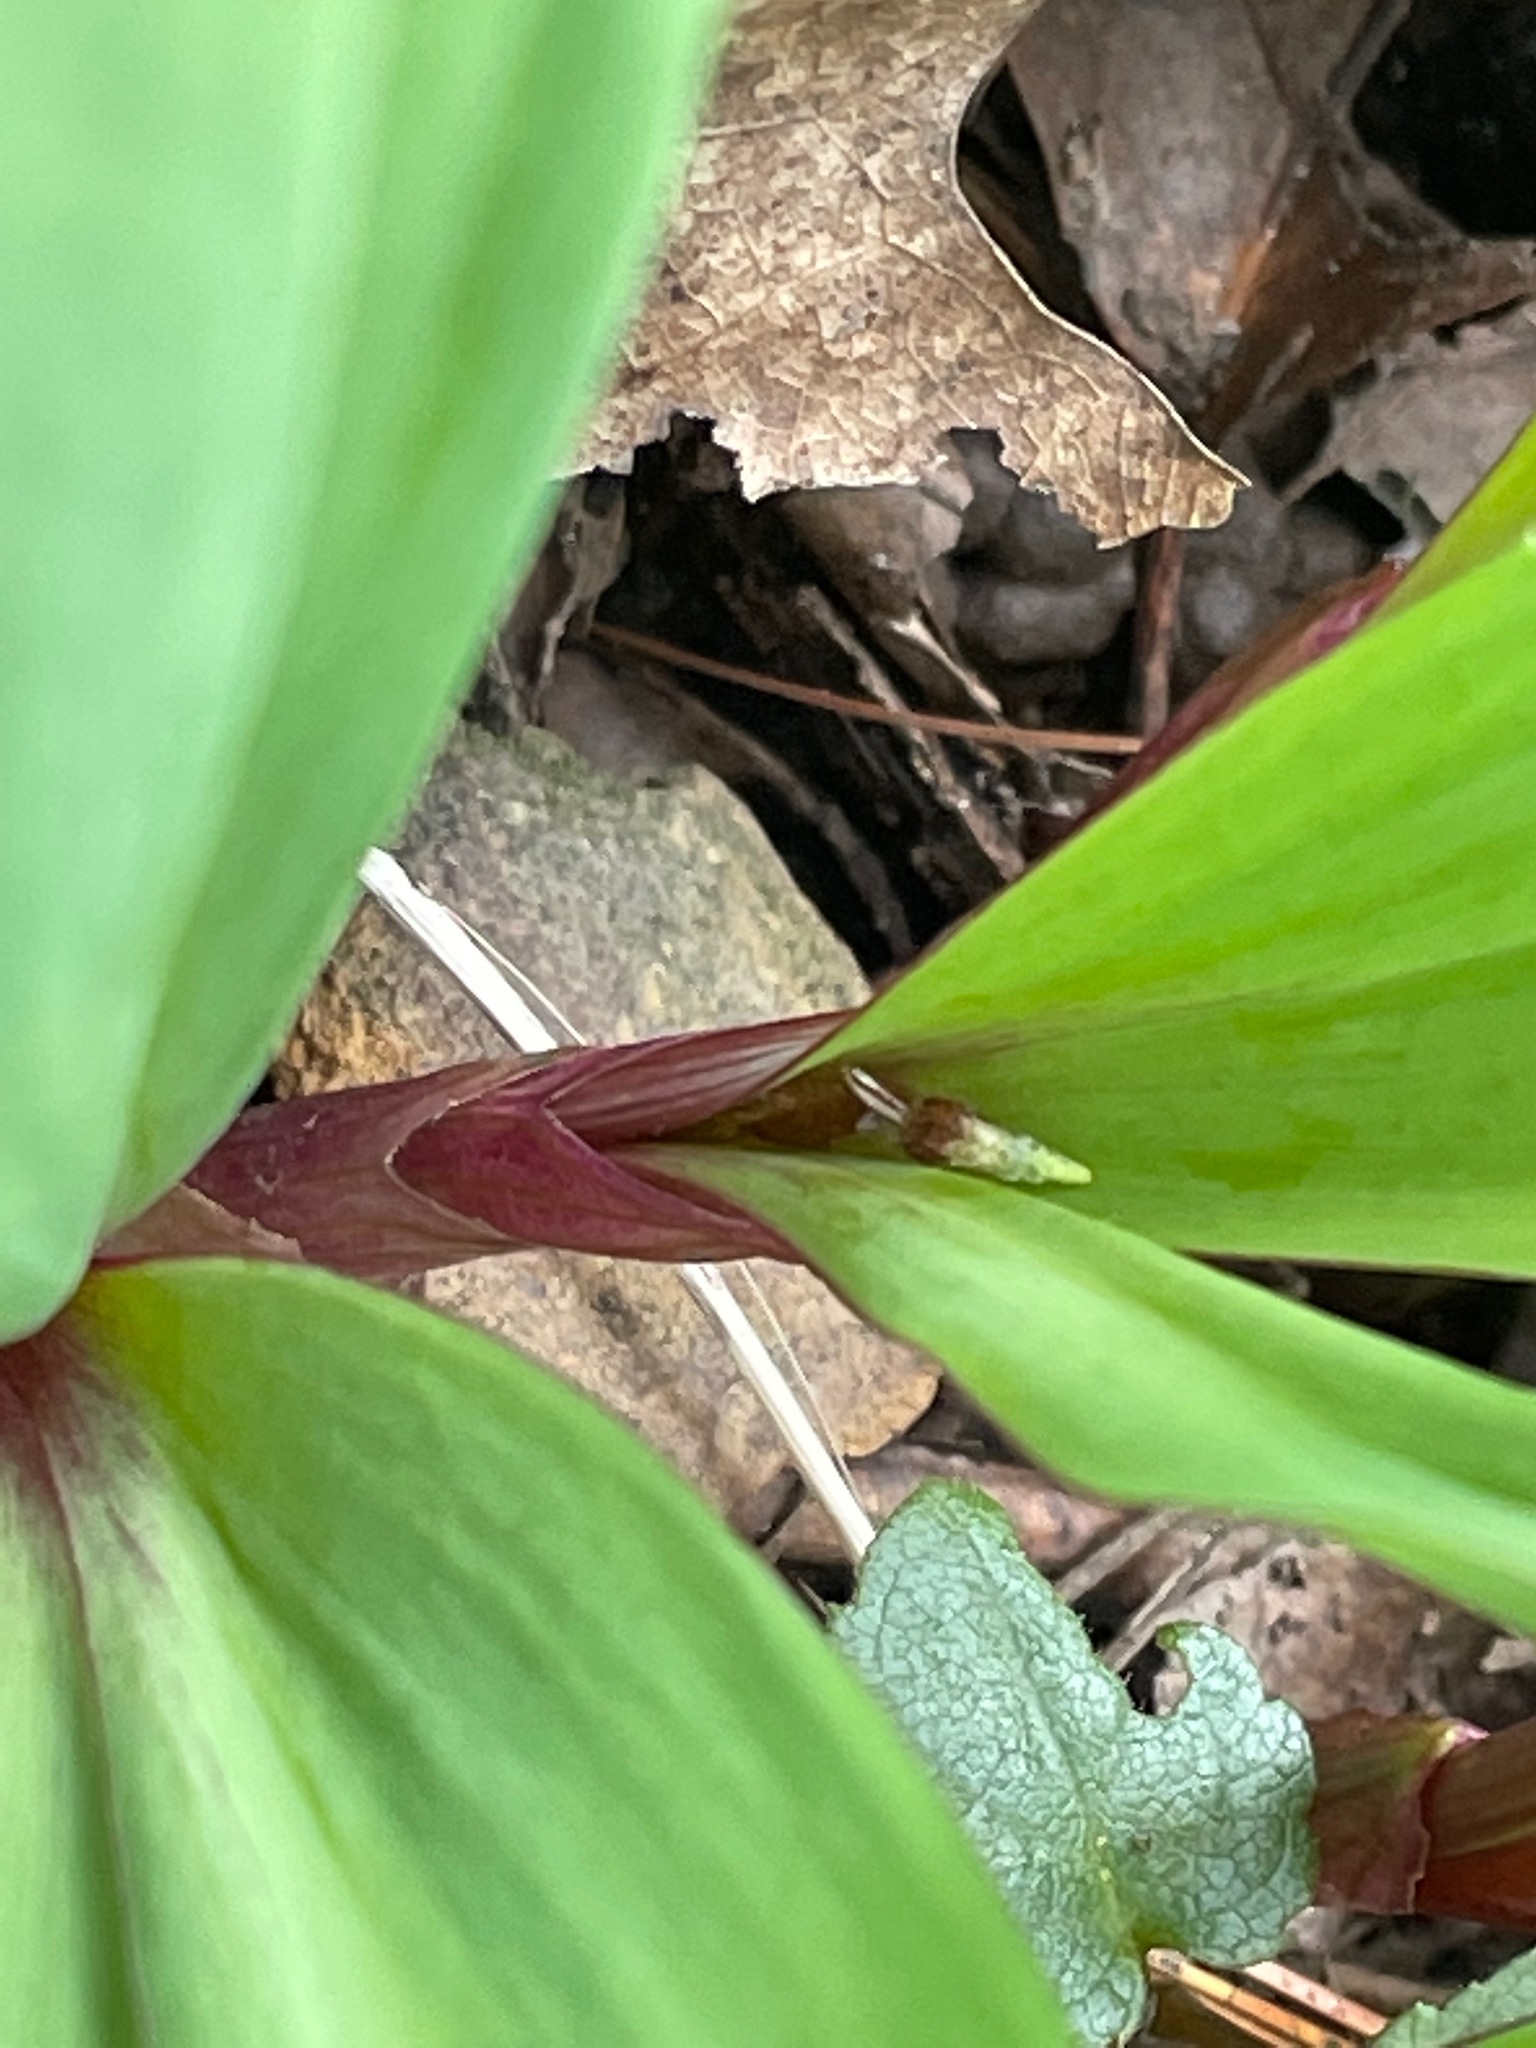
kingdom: Plantae
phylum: Tracheophyta
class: Liliopsida
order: Asparagales
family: Amaryllidaceae
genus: Allium
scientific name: Allium tricoccum
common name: Ramp
